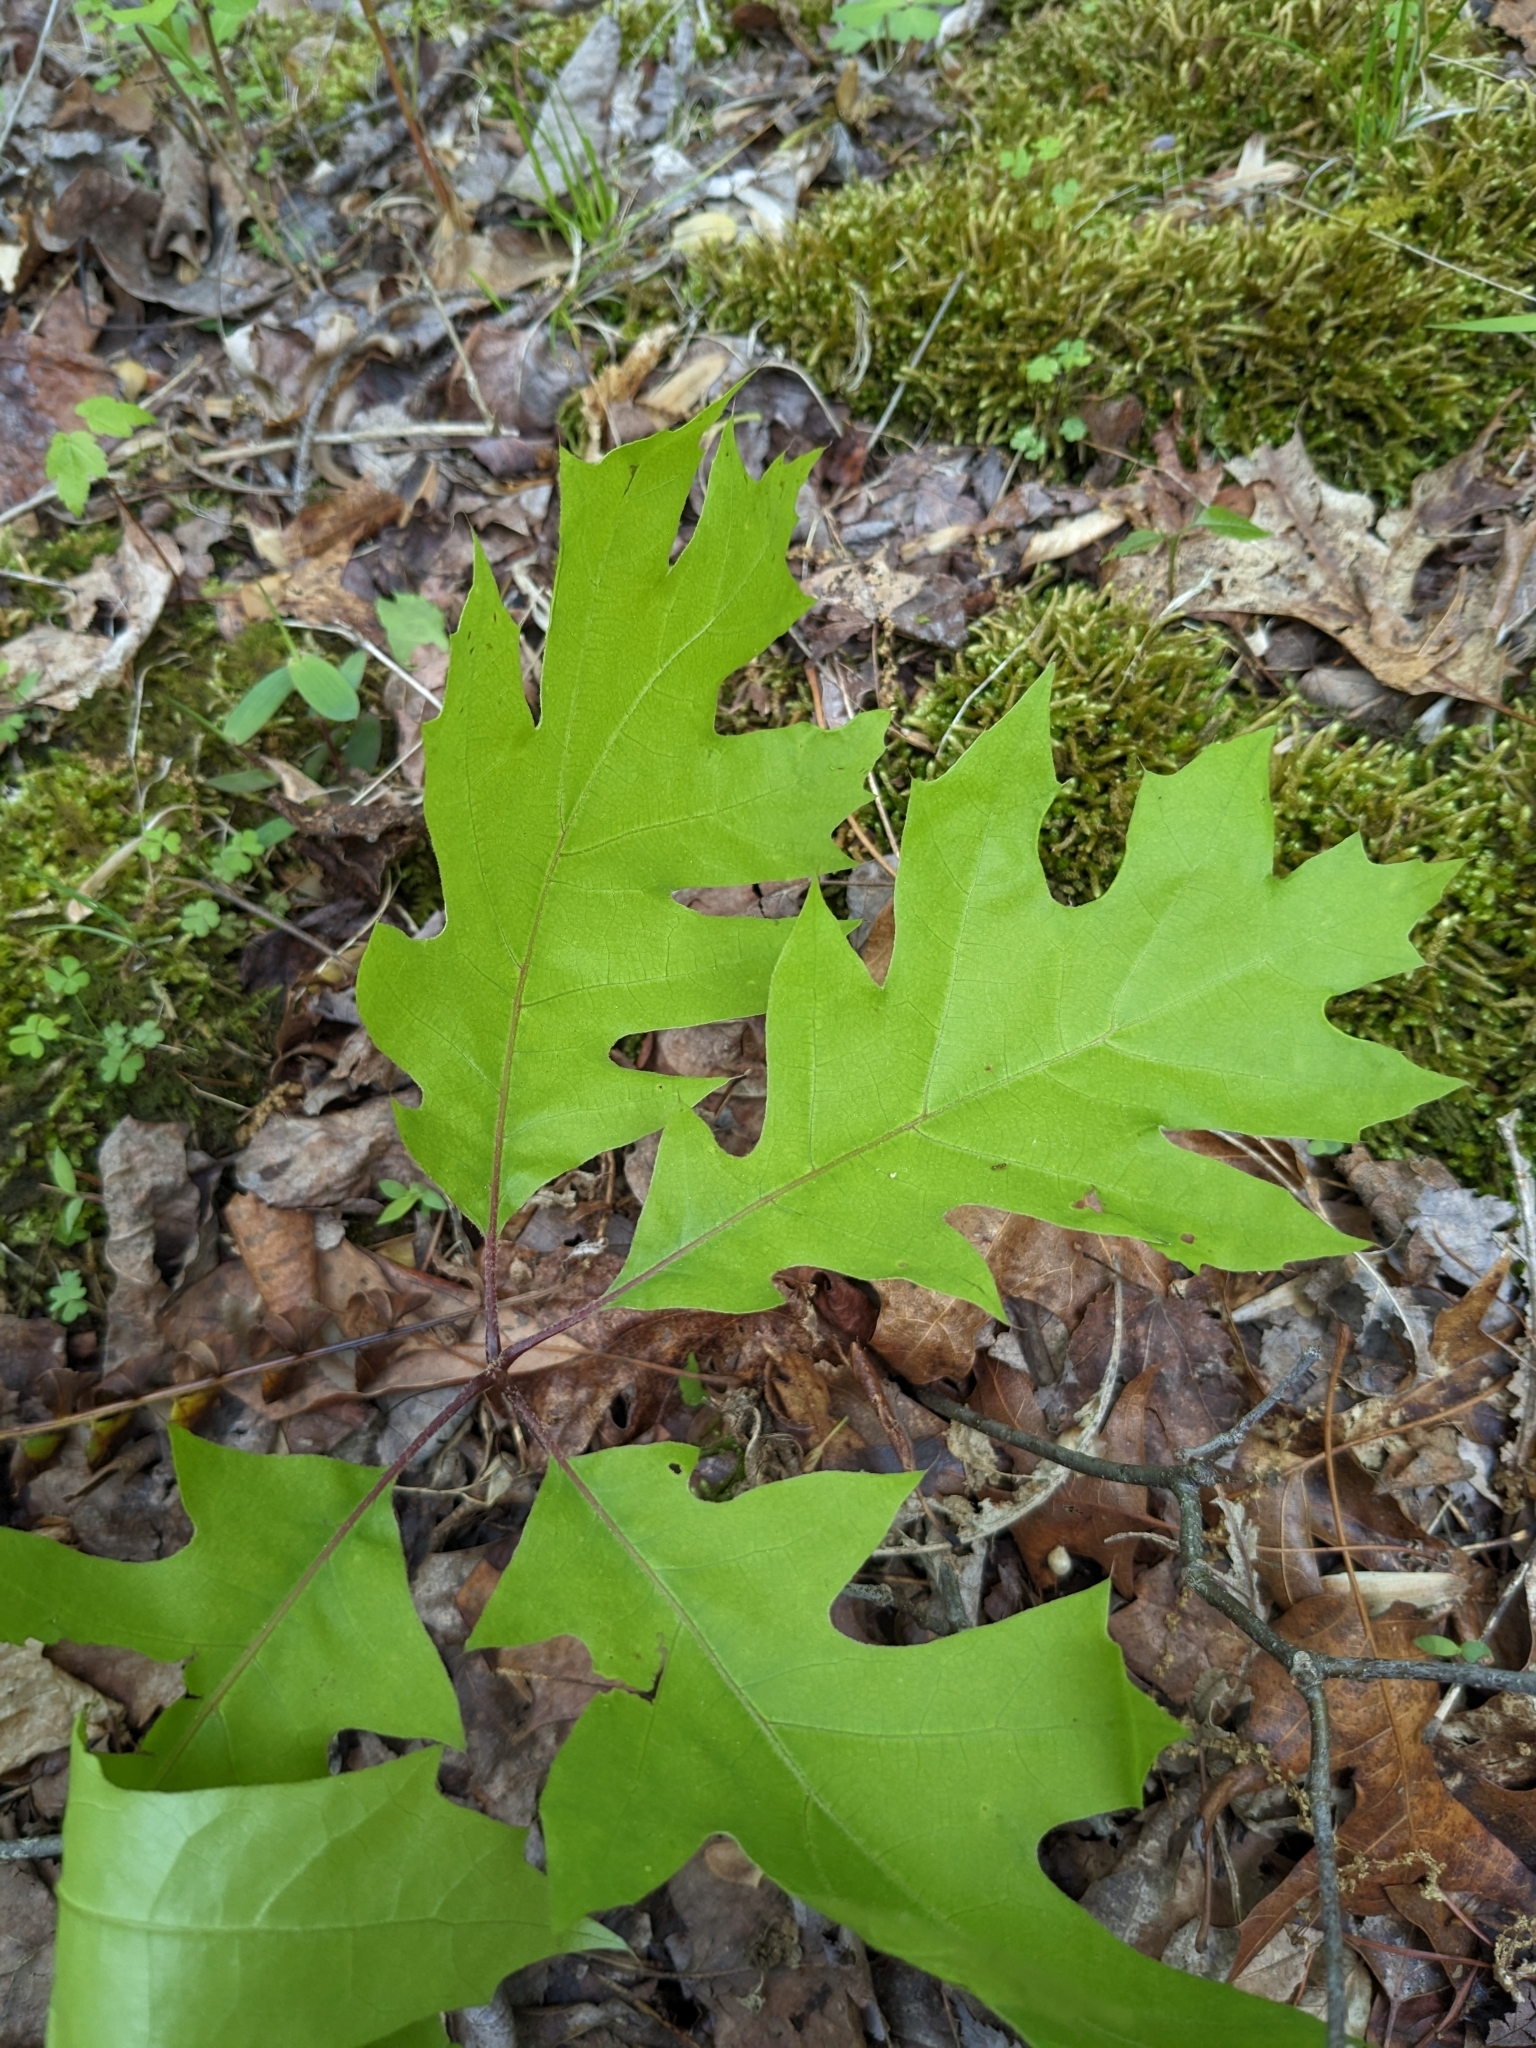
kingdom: Plantae
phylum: Tracheophyta
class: Magnoliopsida
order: Fagales
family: Fagaceae
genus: Quercus
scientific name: Quercus rubra
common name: Red oak
